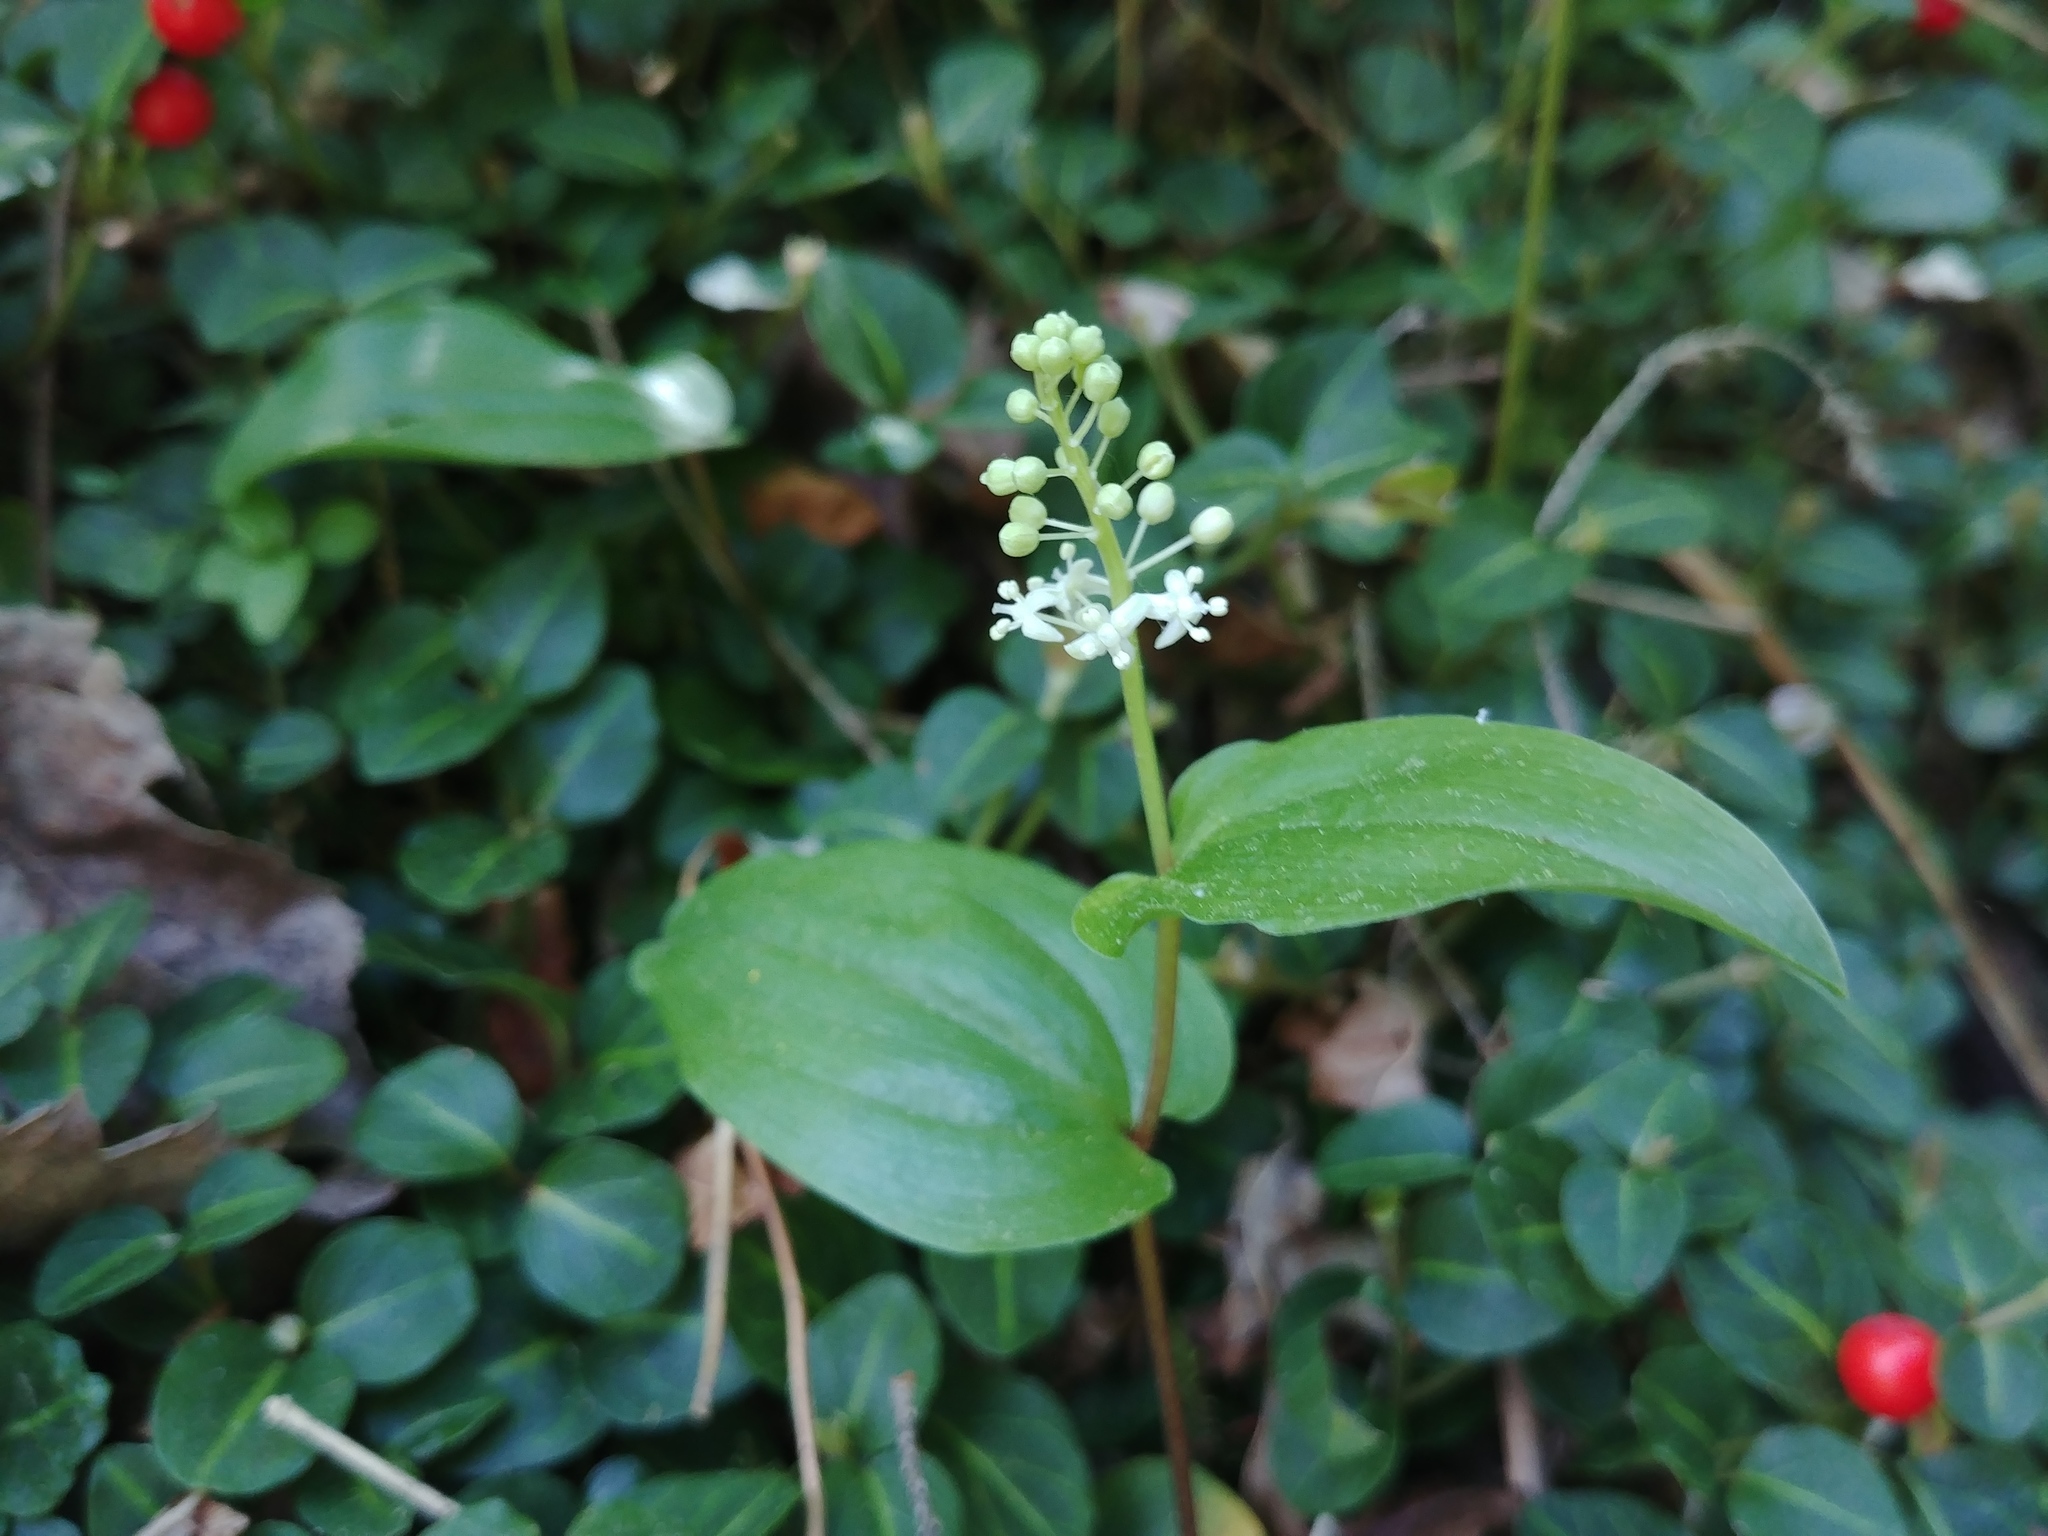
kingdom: Plantae
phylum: Tracheophyta
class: Liliopsida
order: Asparagales
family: Asparagaceae
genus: Maianthemum
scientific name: Maianthemum canadense
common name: False lily-of-the-valley
